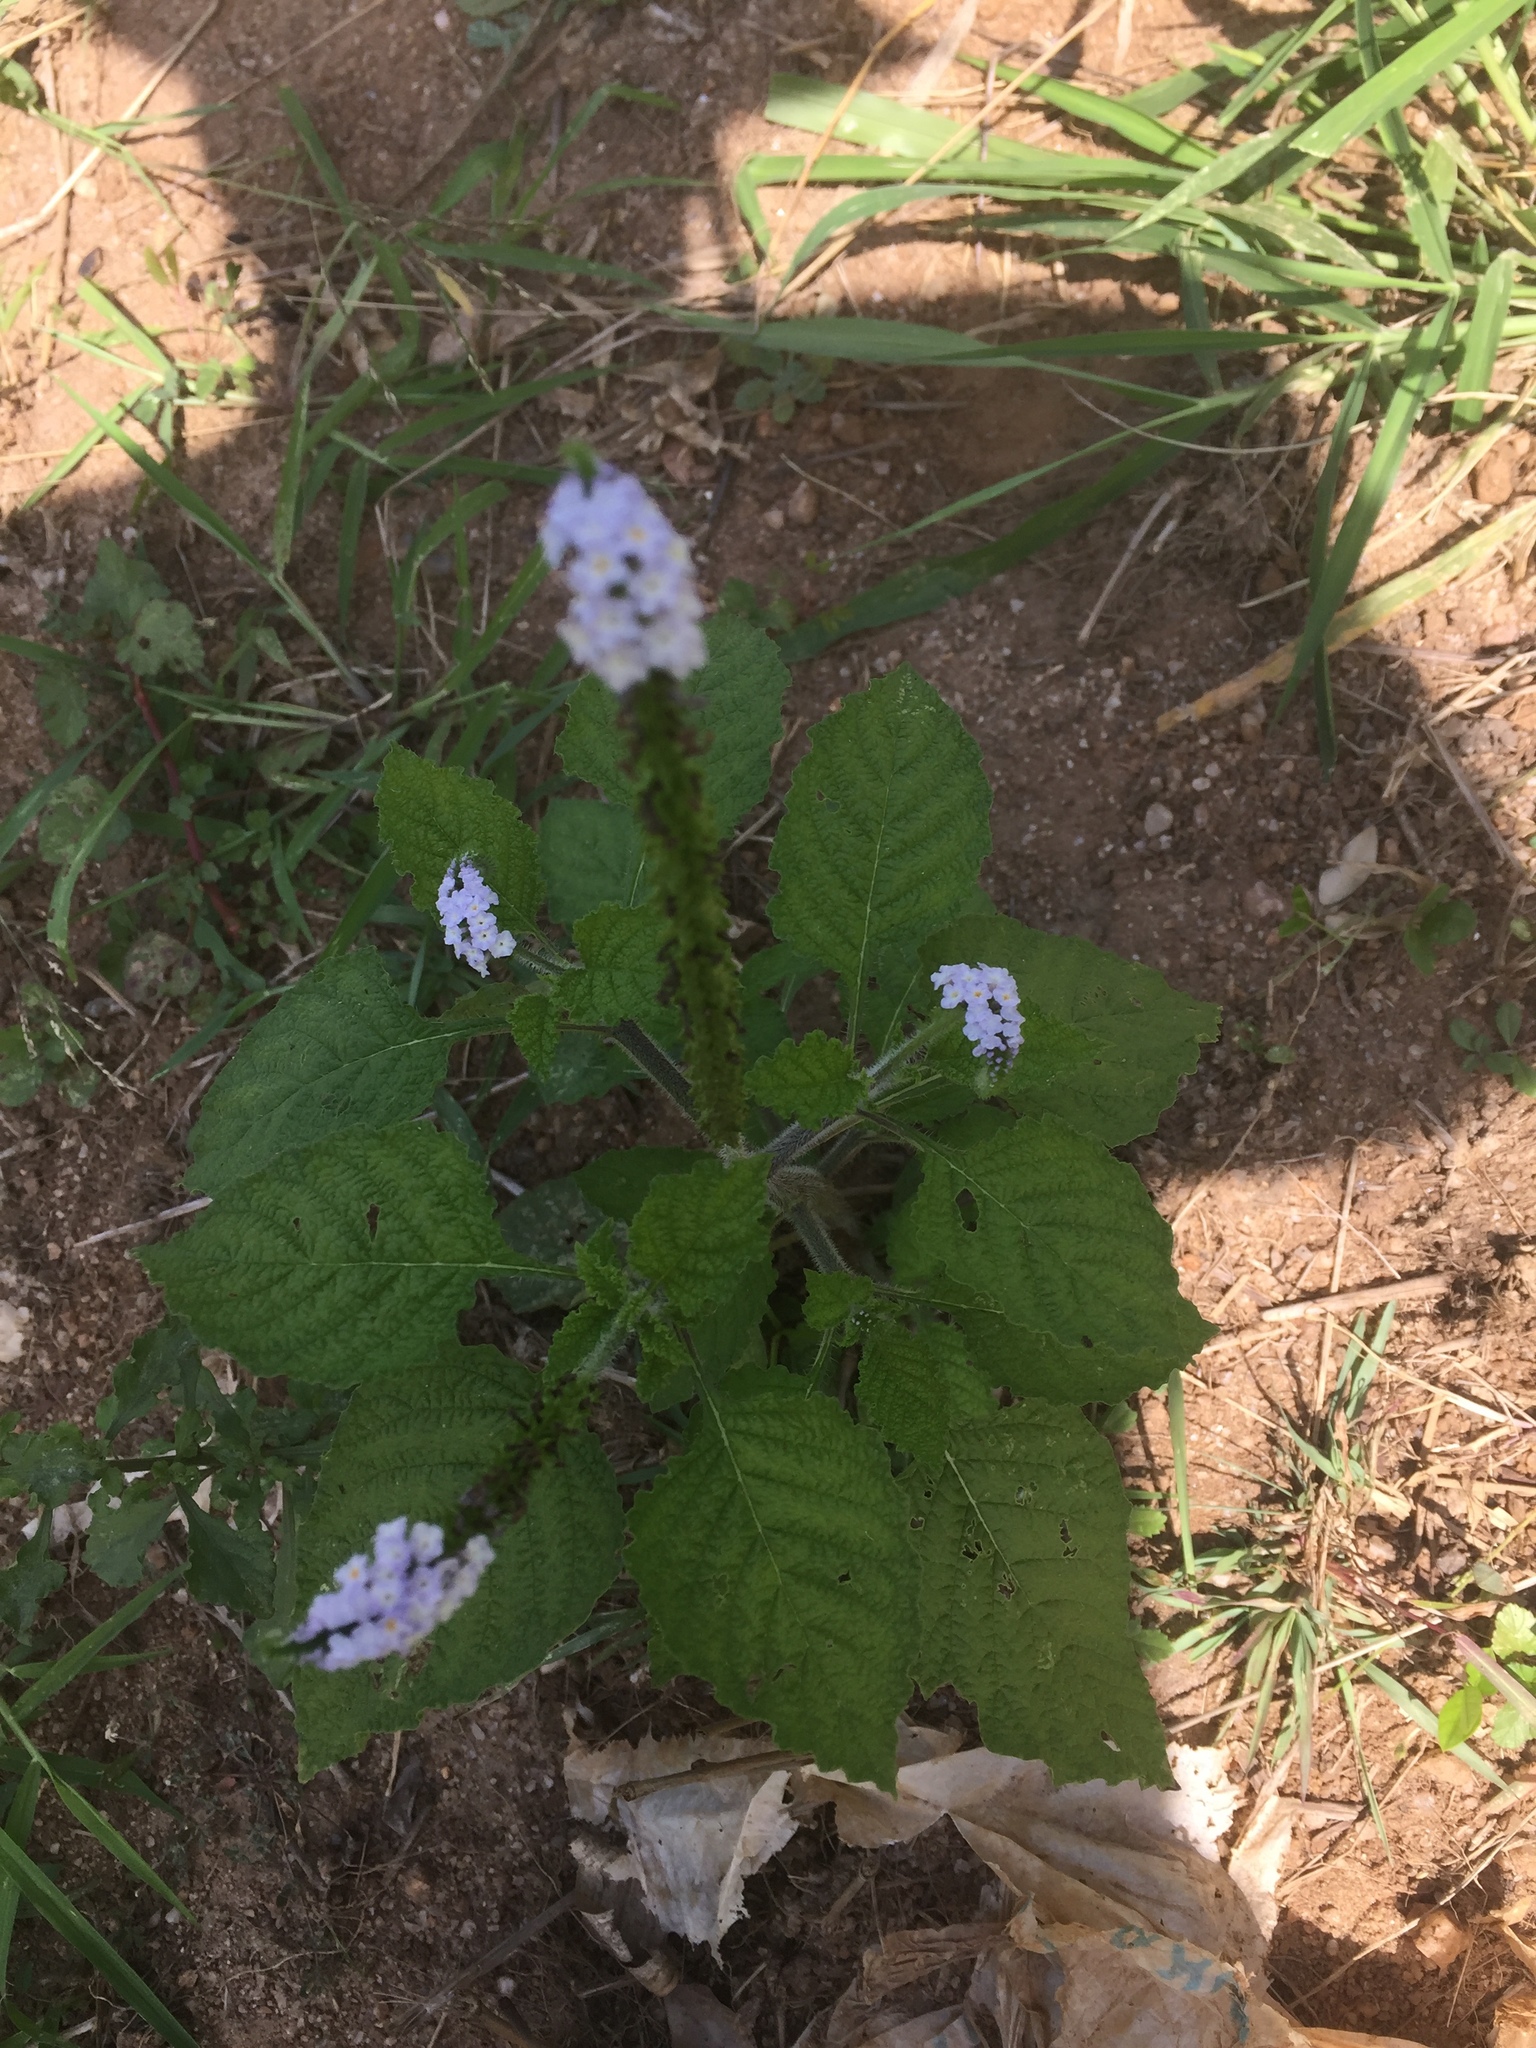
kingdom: Plantae
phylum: Tracheophyta
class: Magnoliopsida
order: Boraginales
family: Heliotropiaceae
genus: Heliotropium
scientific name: Heliotropium indicum
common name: Indian heliotrope
